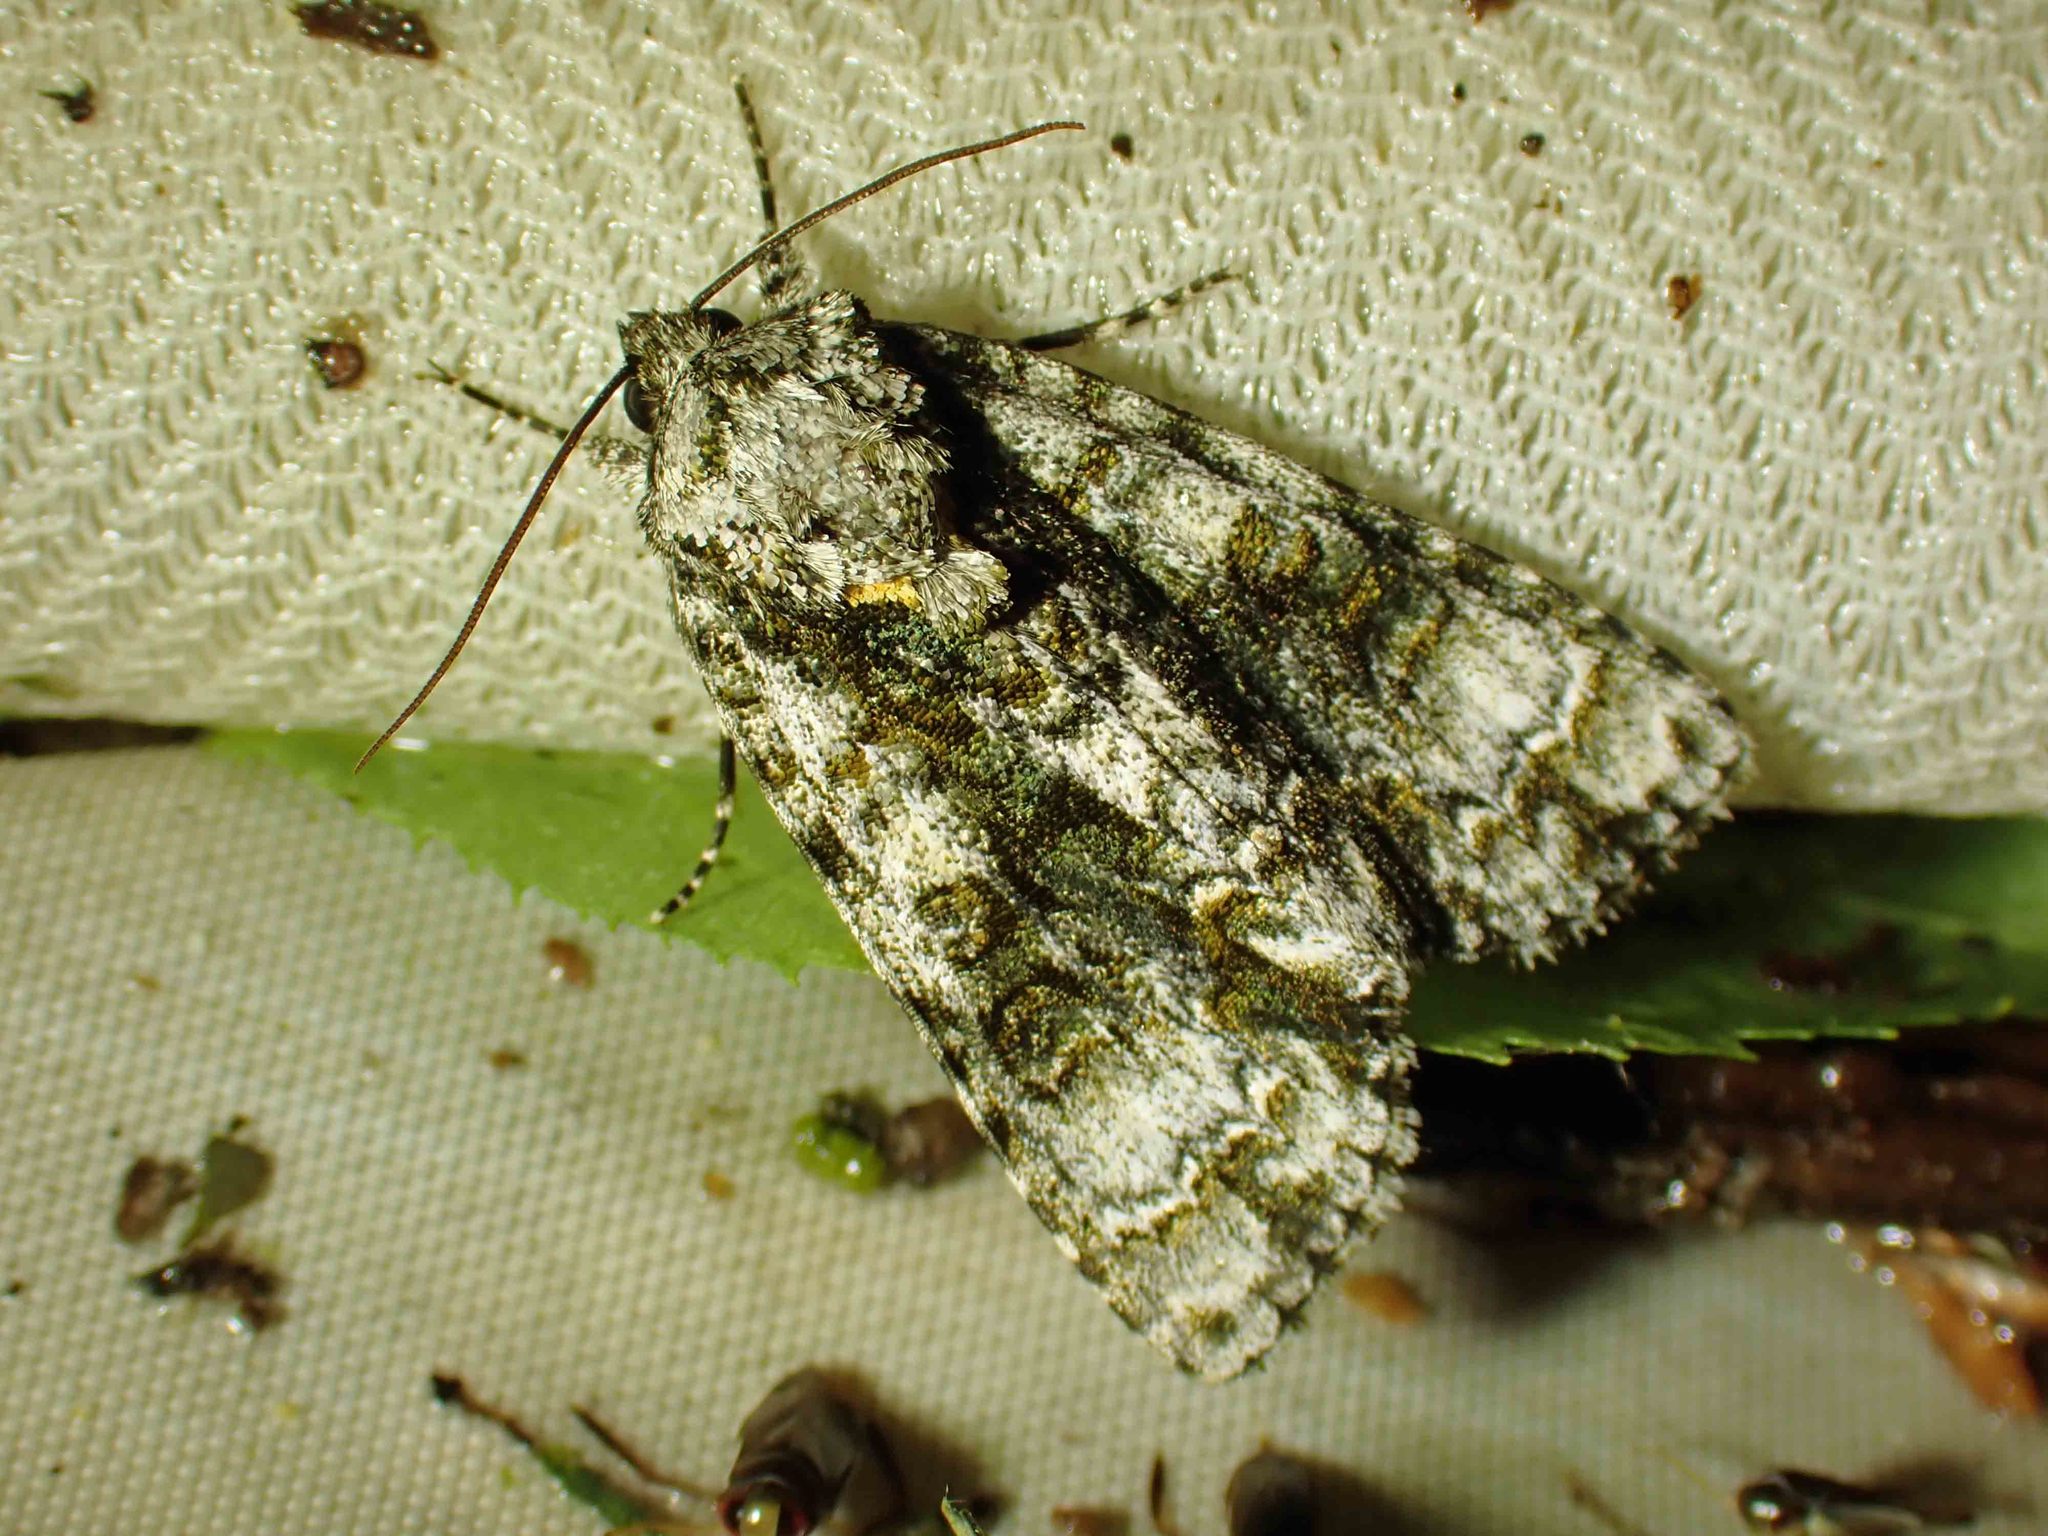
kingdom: Animalia
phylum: Arthropoda
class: Insecta
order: Lepidoptera
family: Noctuidae
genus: Acronicta
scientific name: Acronicta superans
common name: Splendid dagger
